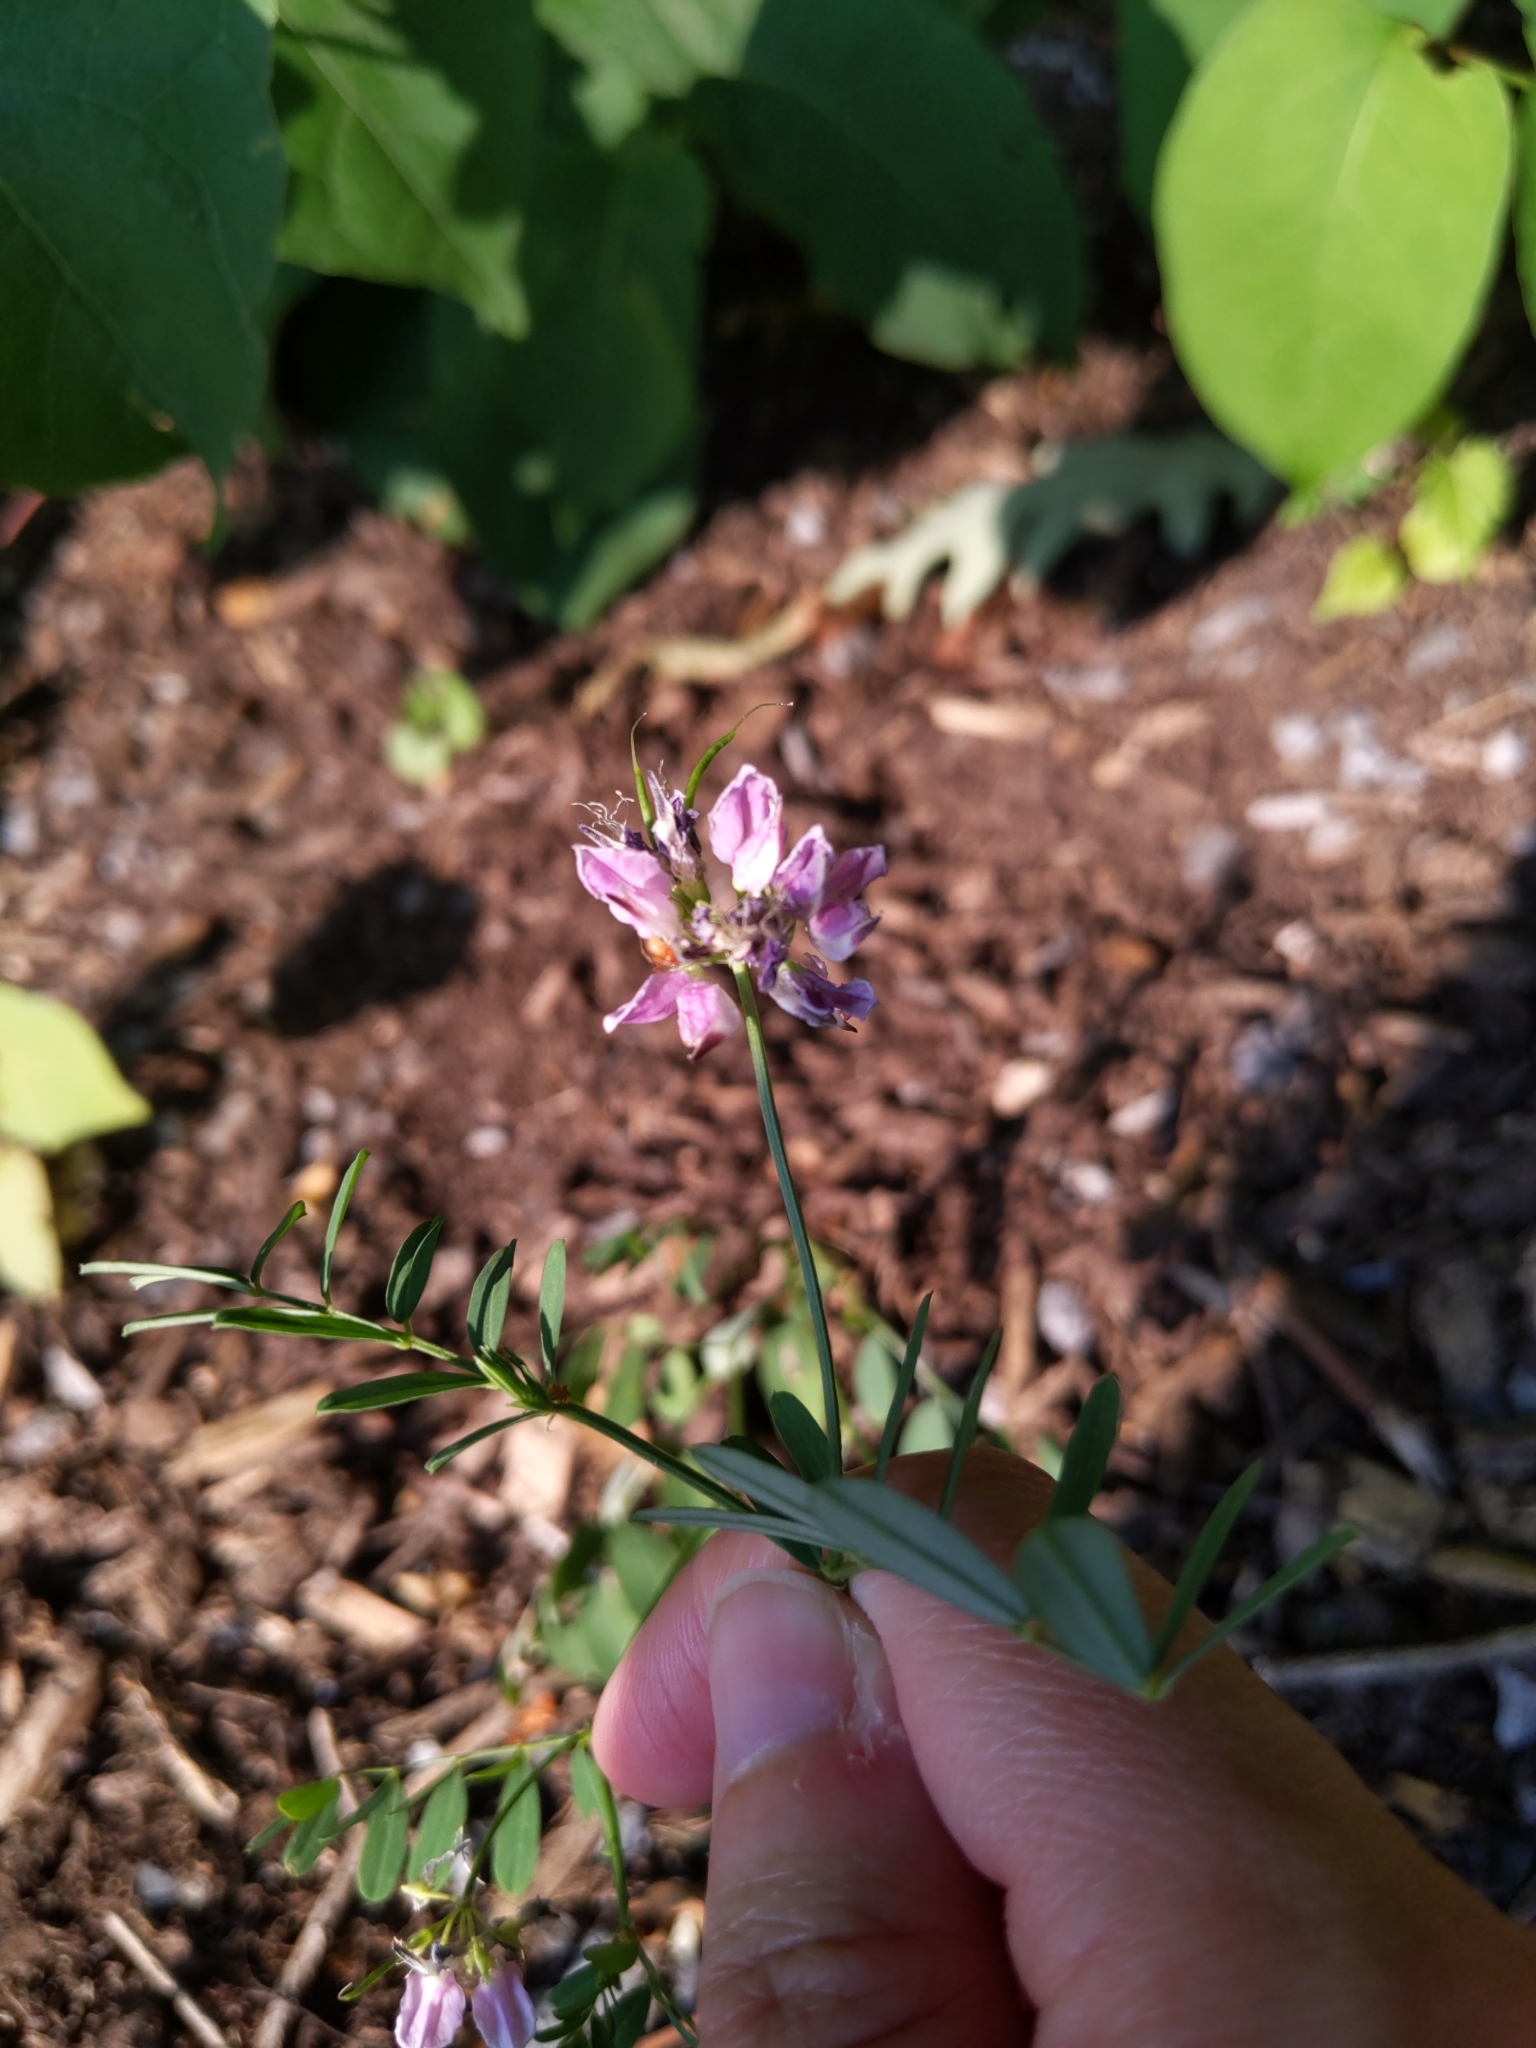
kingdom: Plantae
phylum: Tracheophyta
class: Magnoliopsida
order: Fabales
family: Fabaceae
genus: Coronilla
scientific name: Coronilla varia
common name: Crownvetch
